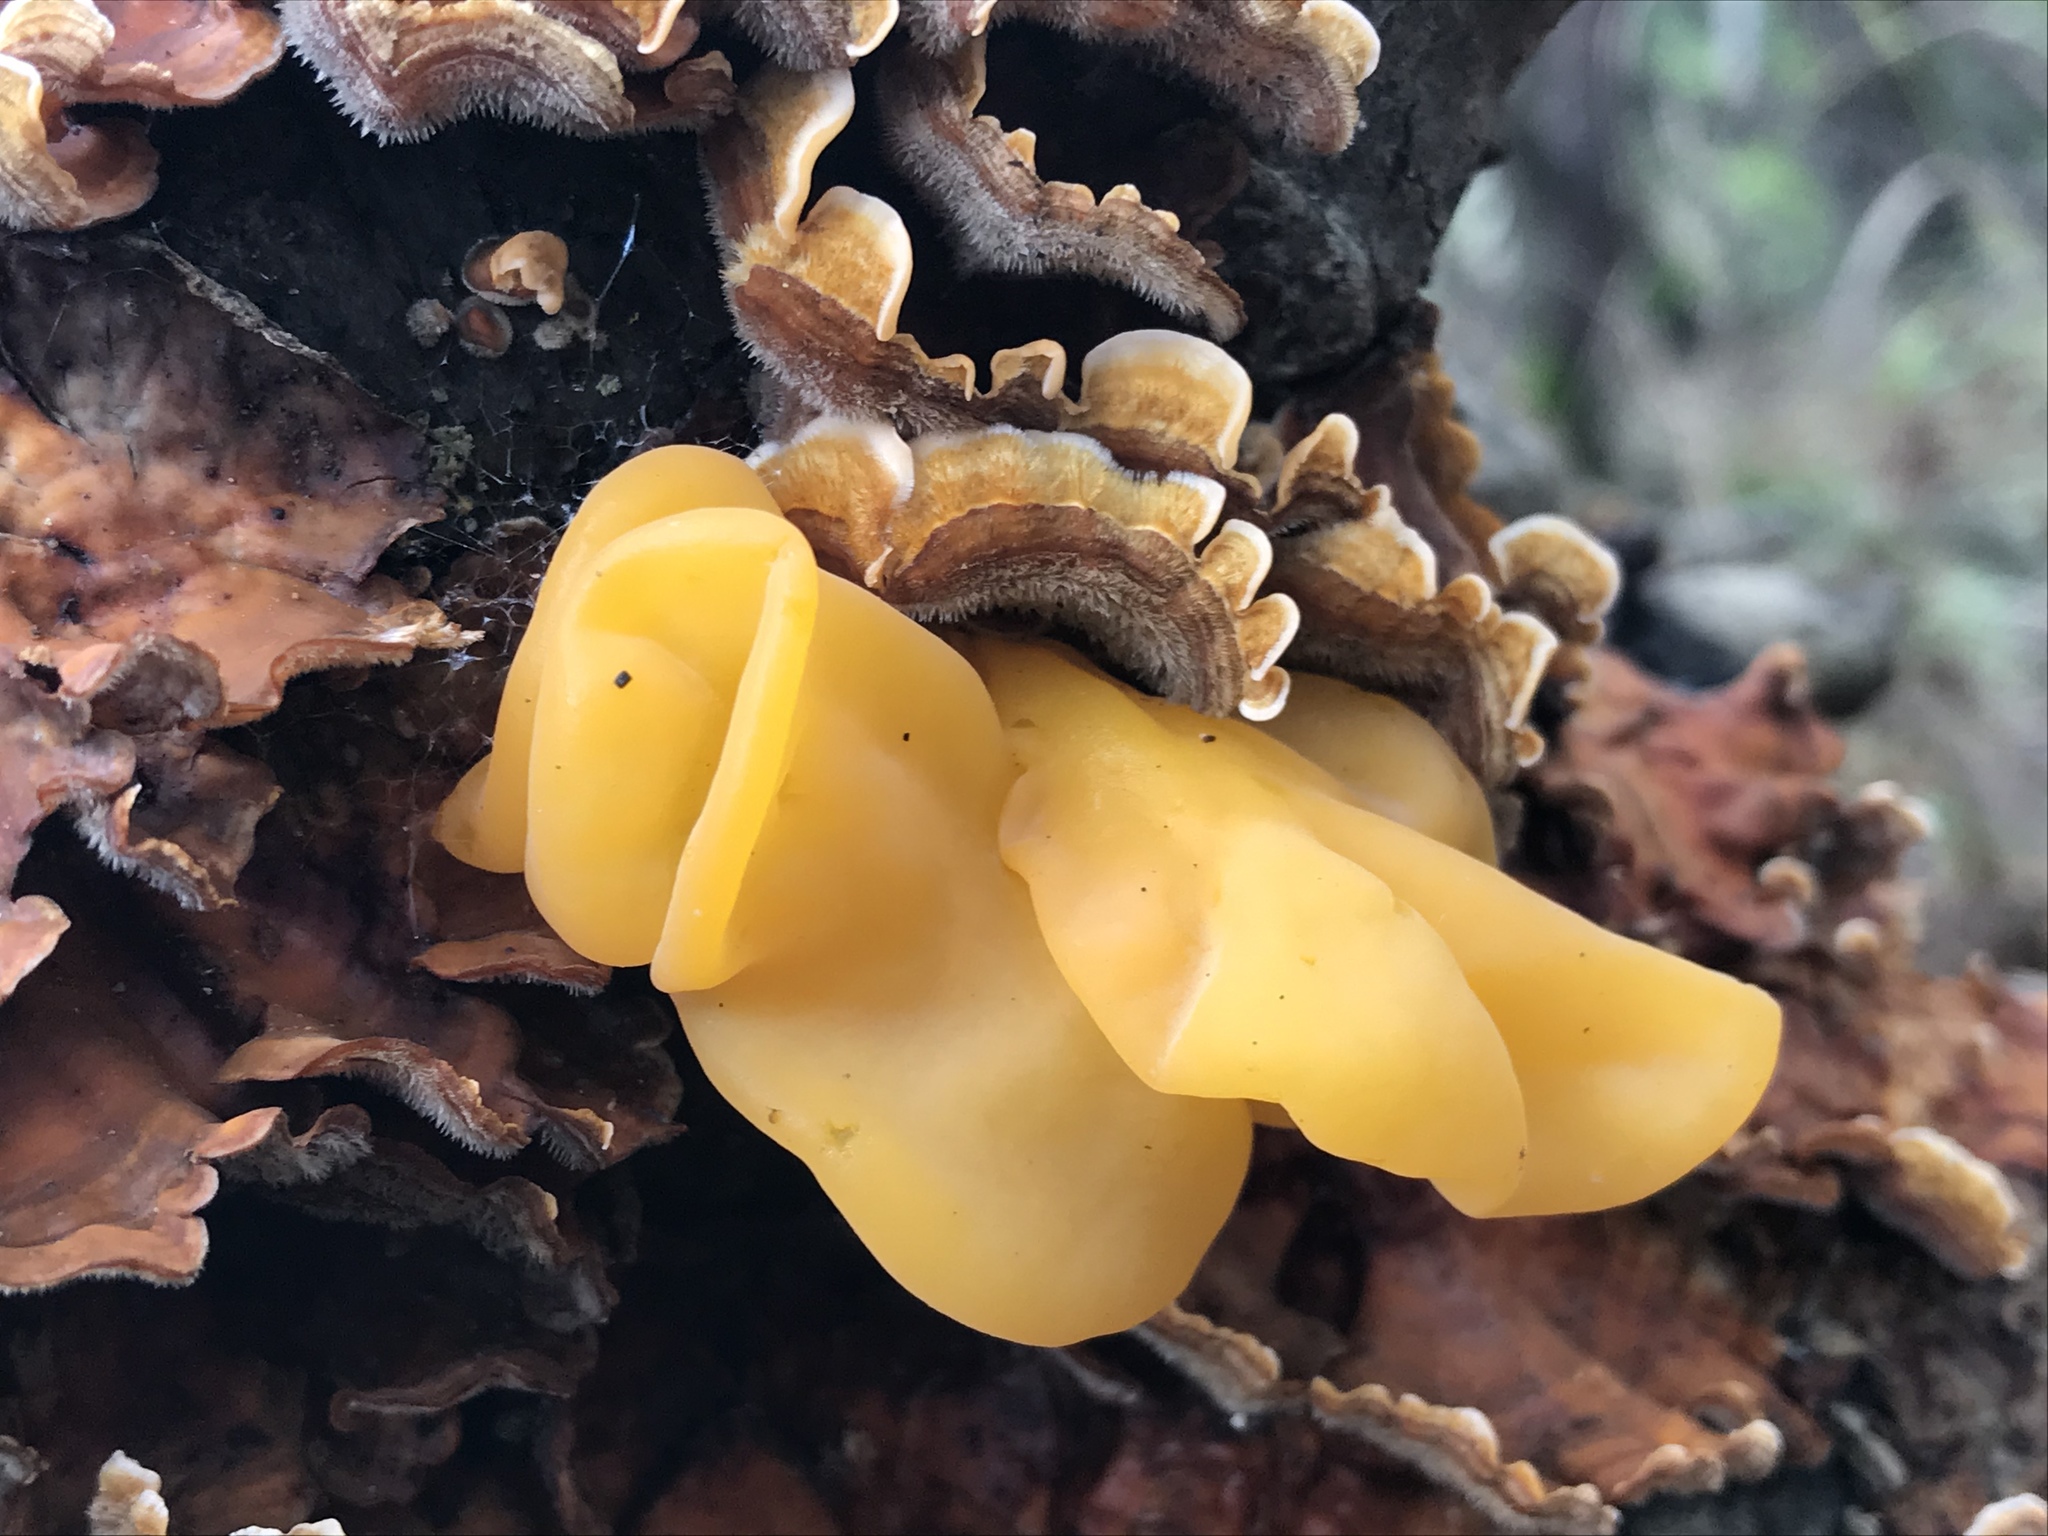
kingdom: Fungi
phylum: Basidiomycota
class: Tremellomycetes
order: Tremellales
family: Naemateliaceae
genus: Naematelia
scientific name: Naematelia aurantia
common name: Golden ear
